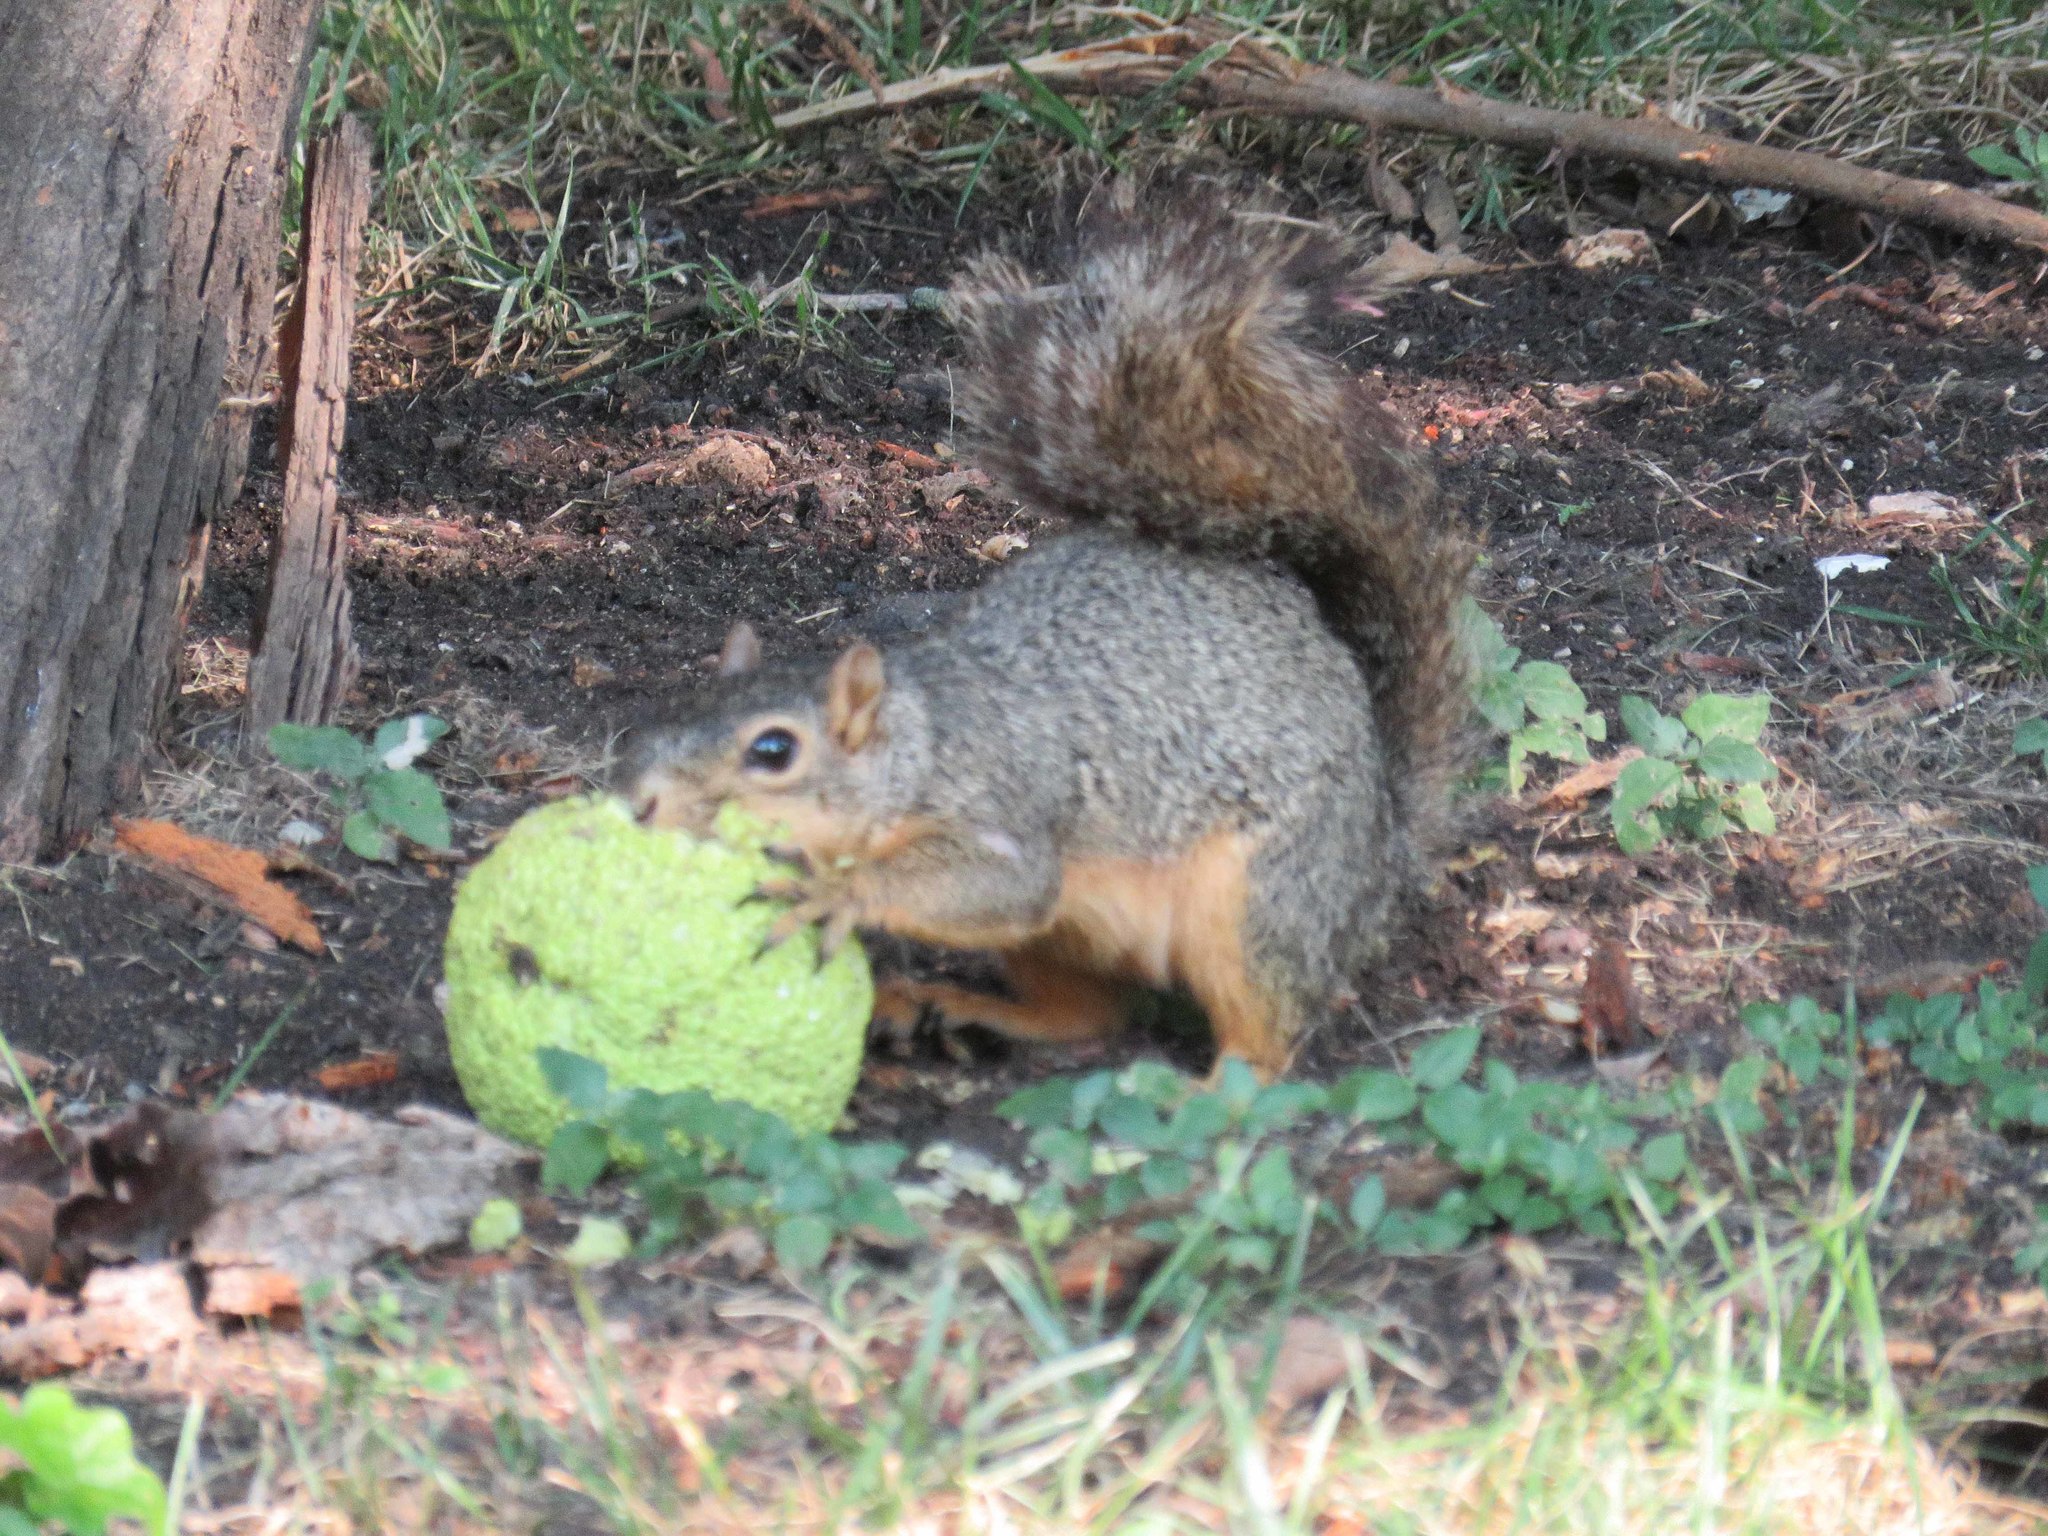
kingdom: Animalia
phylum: Chordata
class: Mammalia
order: Rodentia
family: Sciuridae
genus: Sciurus
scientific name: Sciurus niger
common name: Fox squirrel
